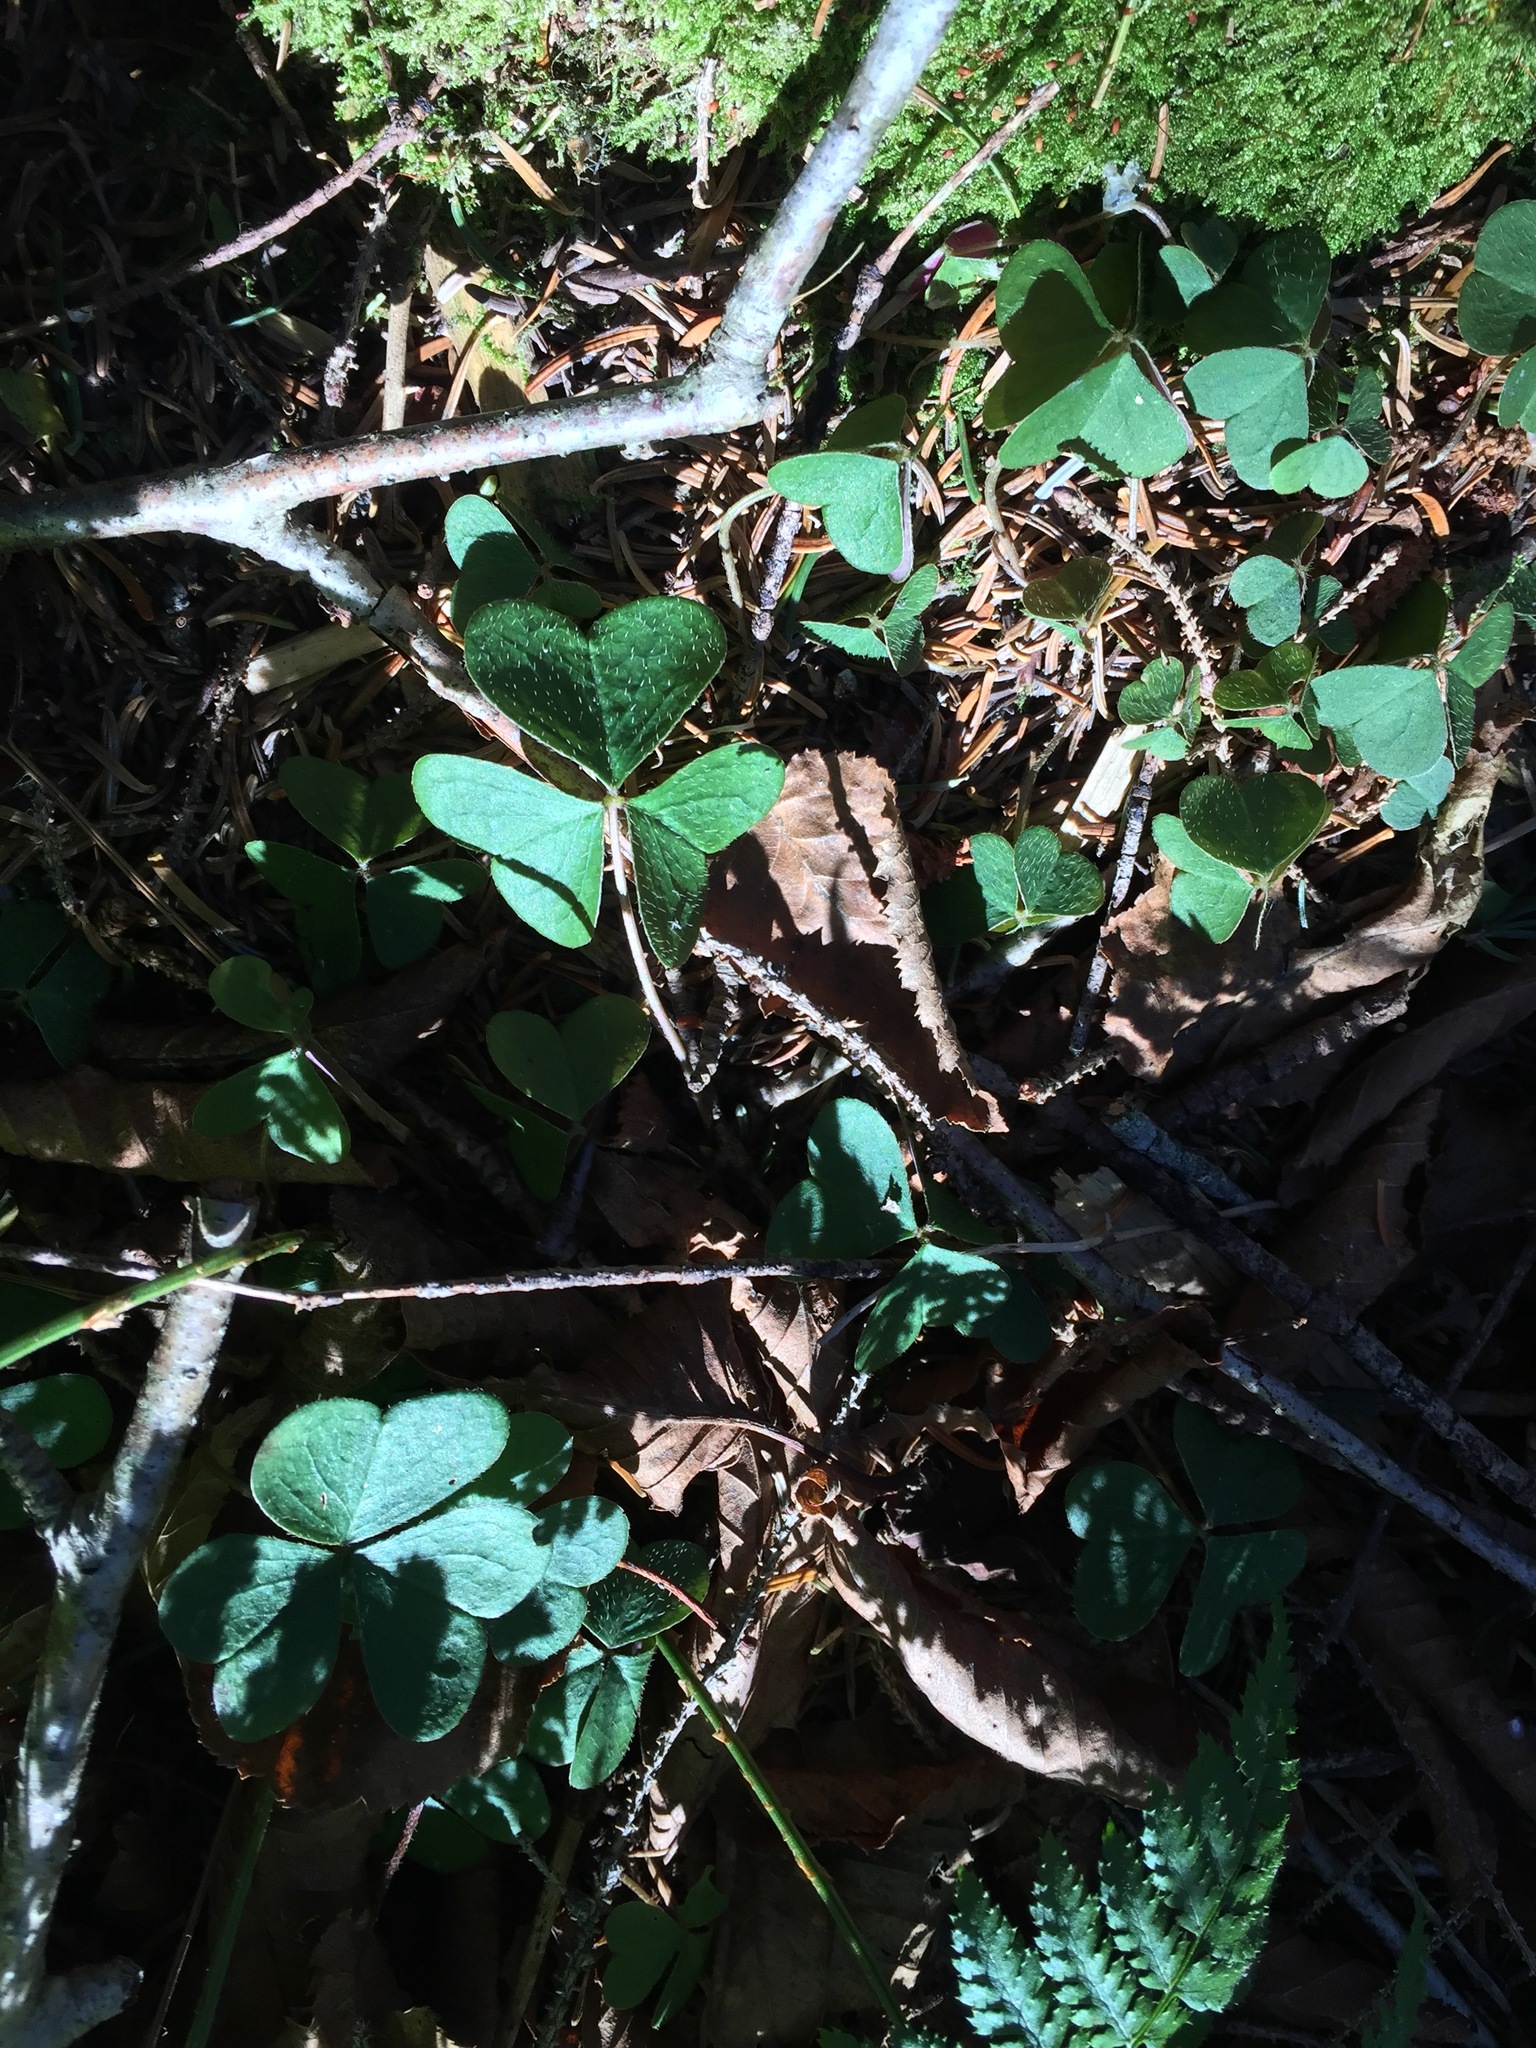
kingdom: Plantae
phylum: Tracheophyta
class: Magnoliopsida
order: Oxalidales
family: Oxalidaceae
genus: Oxalis
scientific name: Oxalis montana
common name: American wood-sorrel
